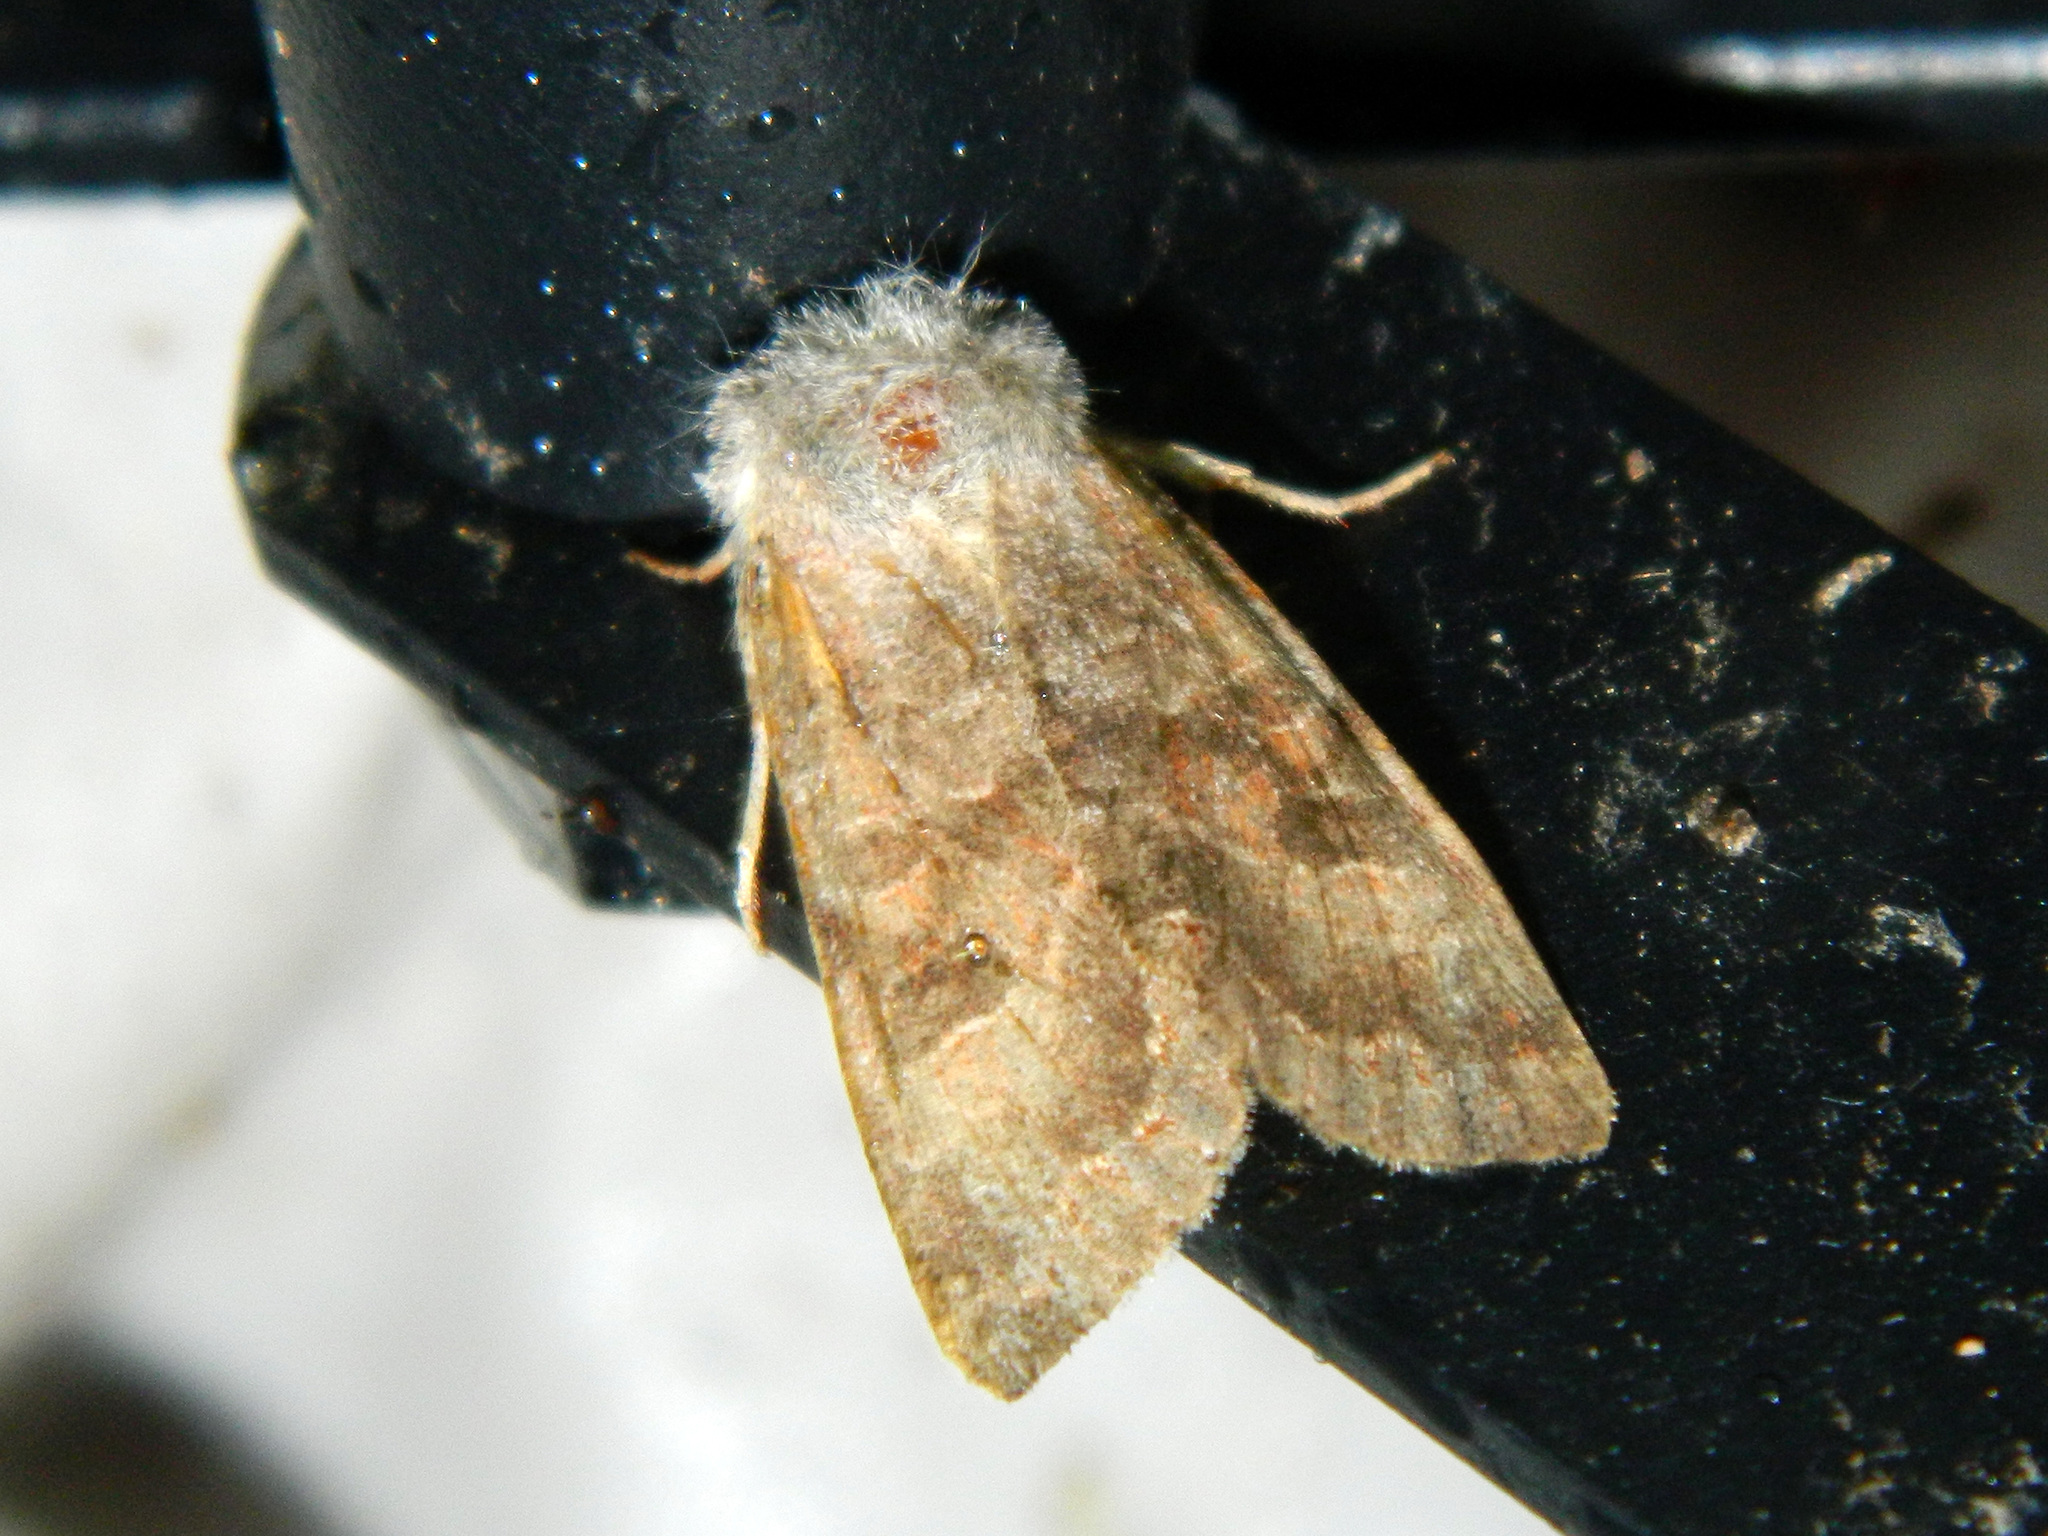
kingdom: Animalia
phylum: Arthropoda
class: Insecta
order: Lepidoptera
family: Noctuidae
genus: Orthosia
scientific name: Orthosia revicta
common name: Rusty whitesided caterpillar
